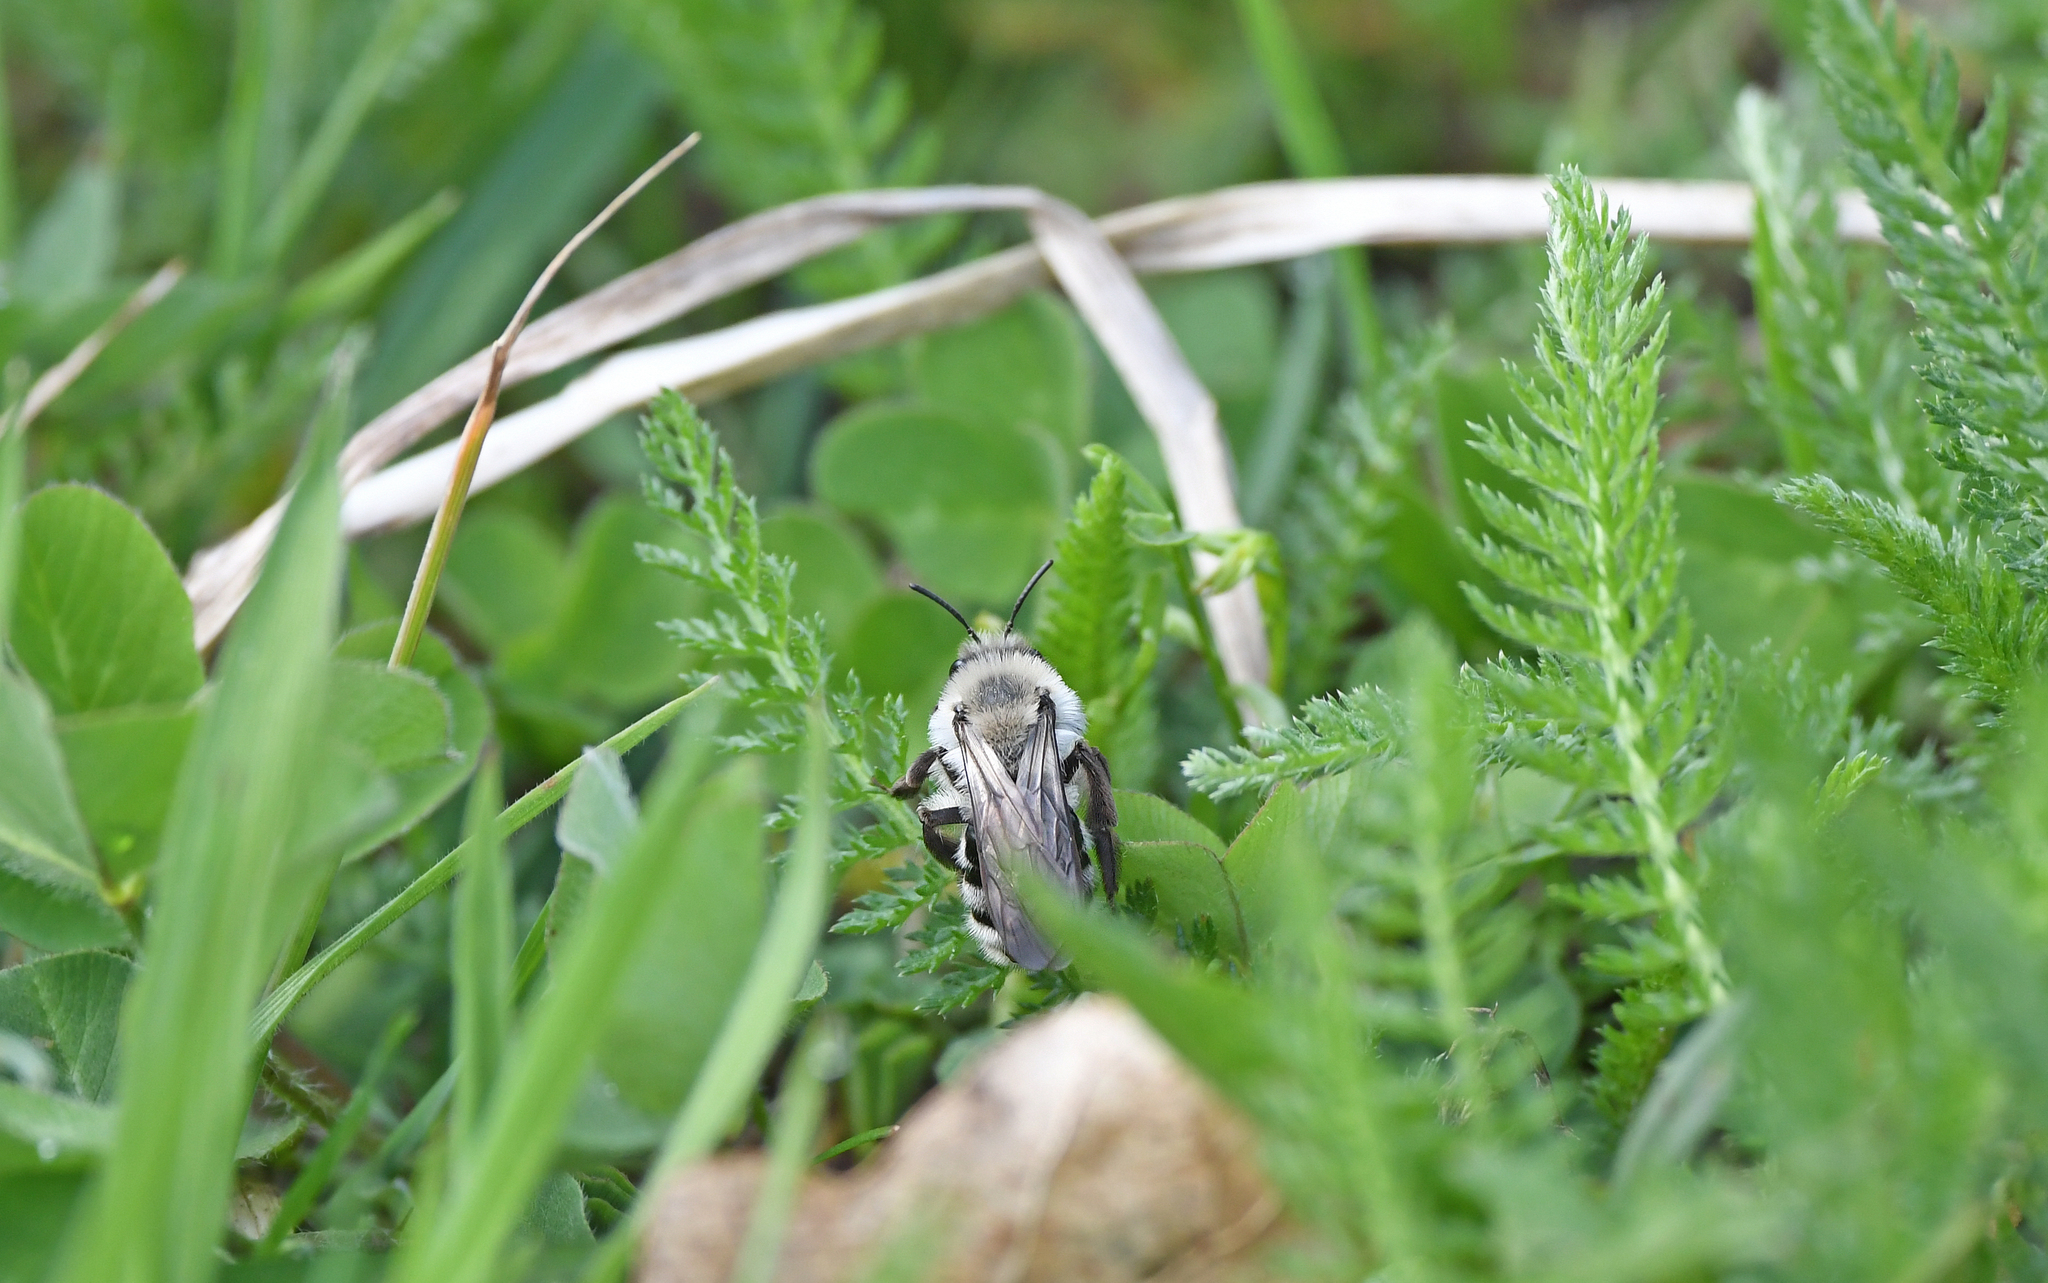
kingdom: Animalia
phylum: Arthropoda
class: Insecta
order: Hymenoptera
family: Andrenidae
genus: Andrena
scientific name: Andrena vaga
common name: Grey-backed mining bee
